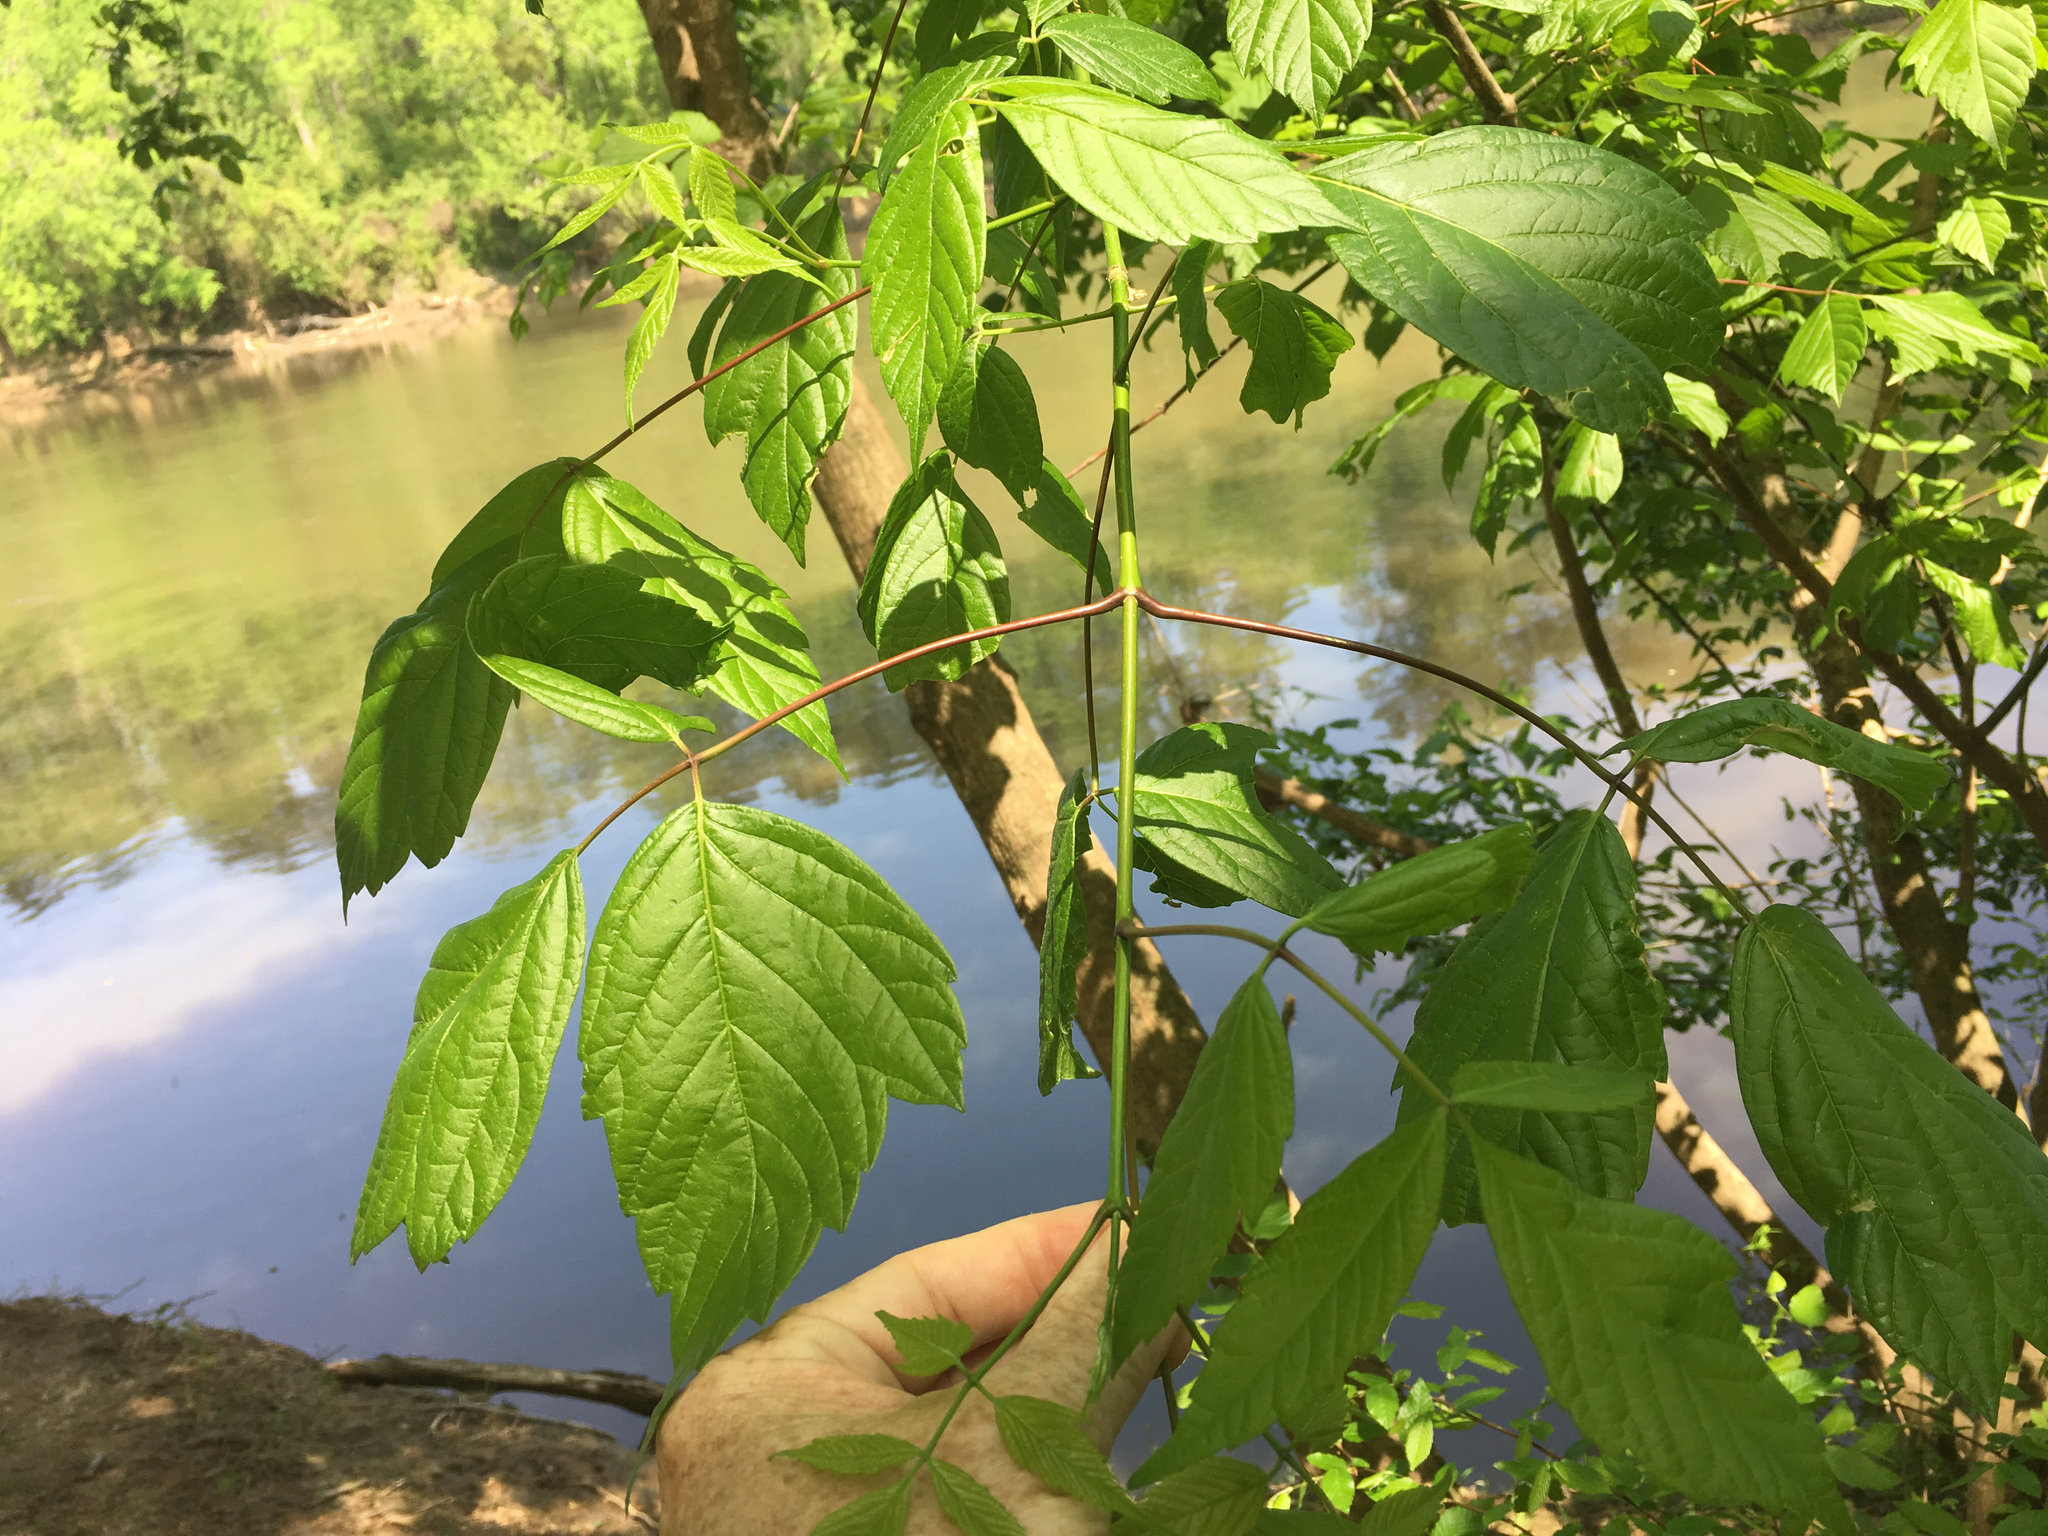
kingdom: Plantae
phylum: Tracheophyta
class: Magnoliopsida
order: Sapindales
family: Sapindaceae
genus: Acer
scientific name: Acer negundo
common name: Ashleaf maple
